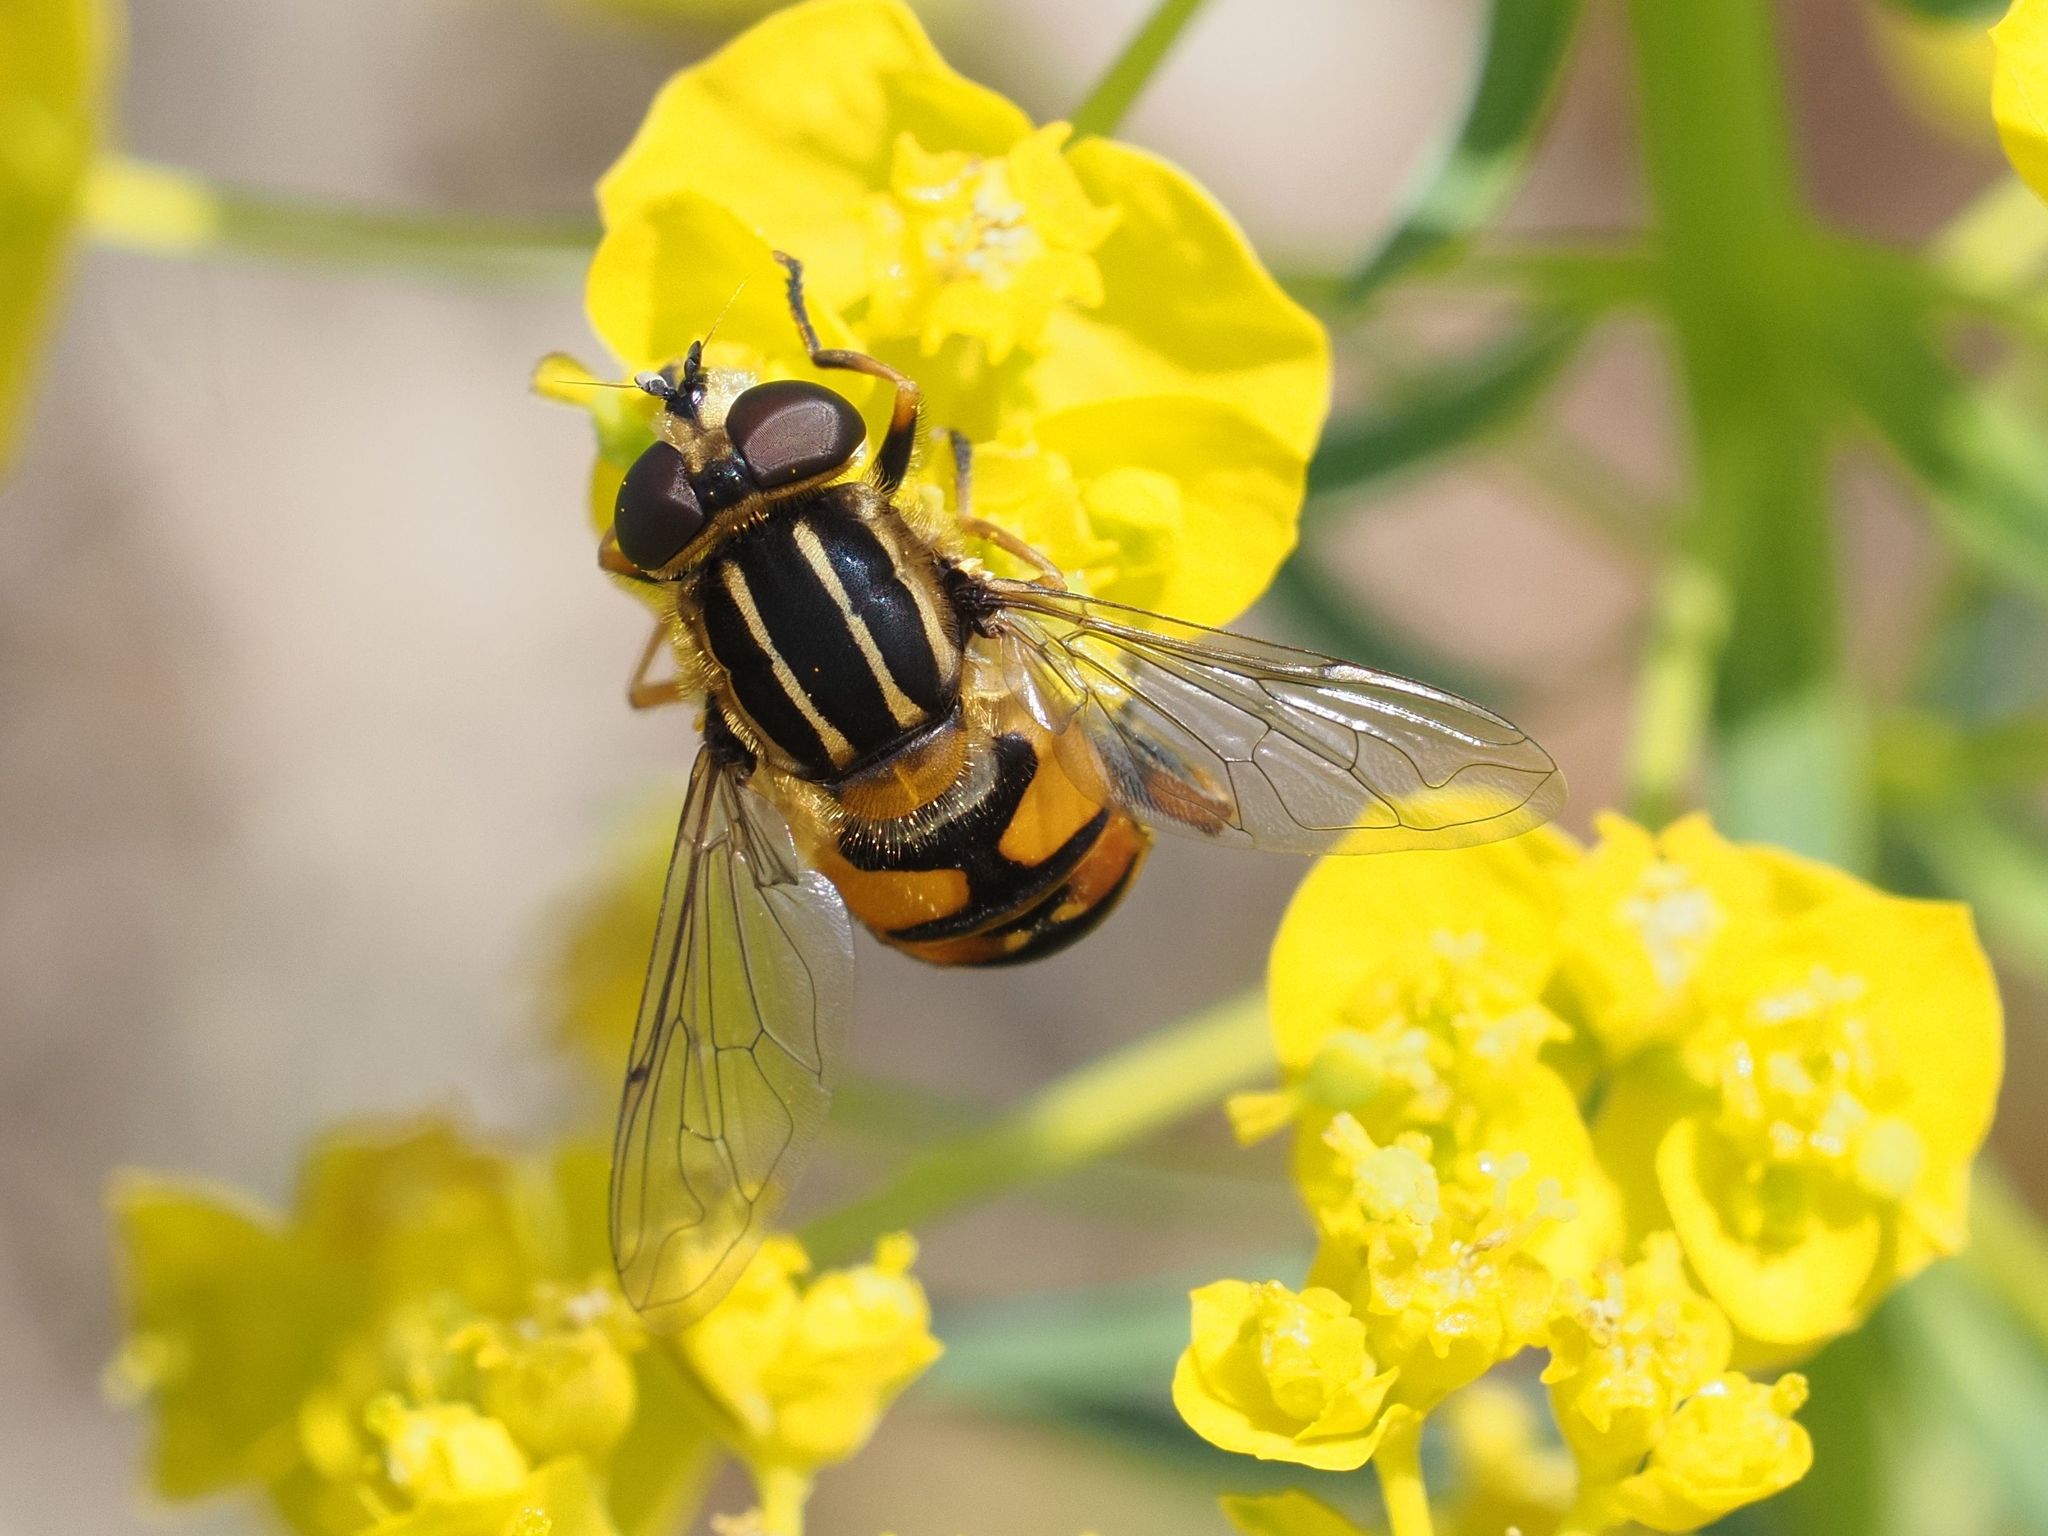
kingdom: Animalia
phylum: Arthropoda
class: Insecta
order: Diptera
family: Syrphidae
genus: Helophilus
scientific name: Helophilus pendulus
